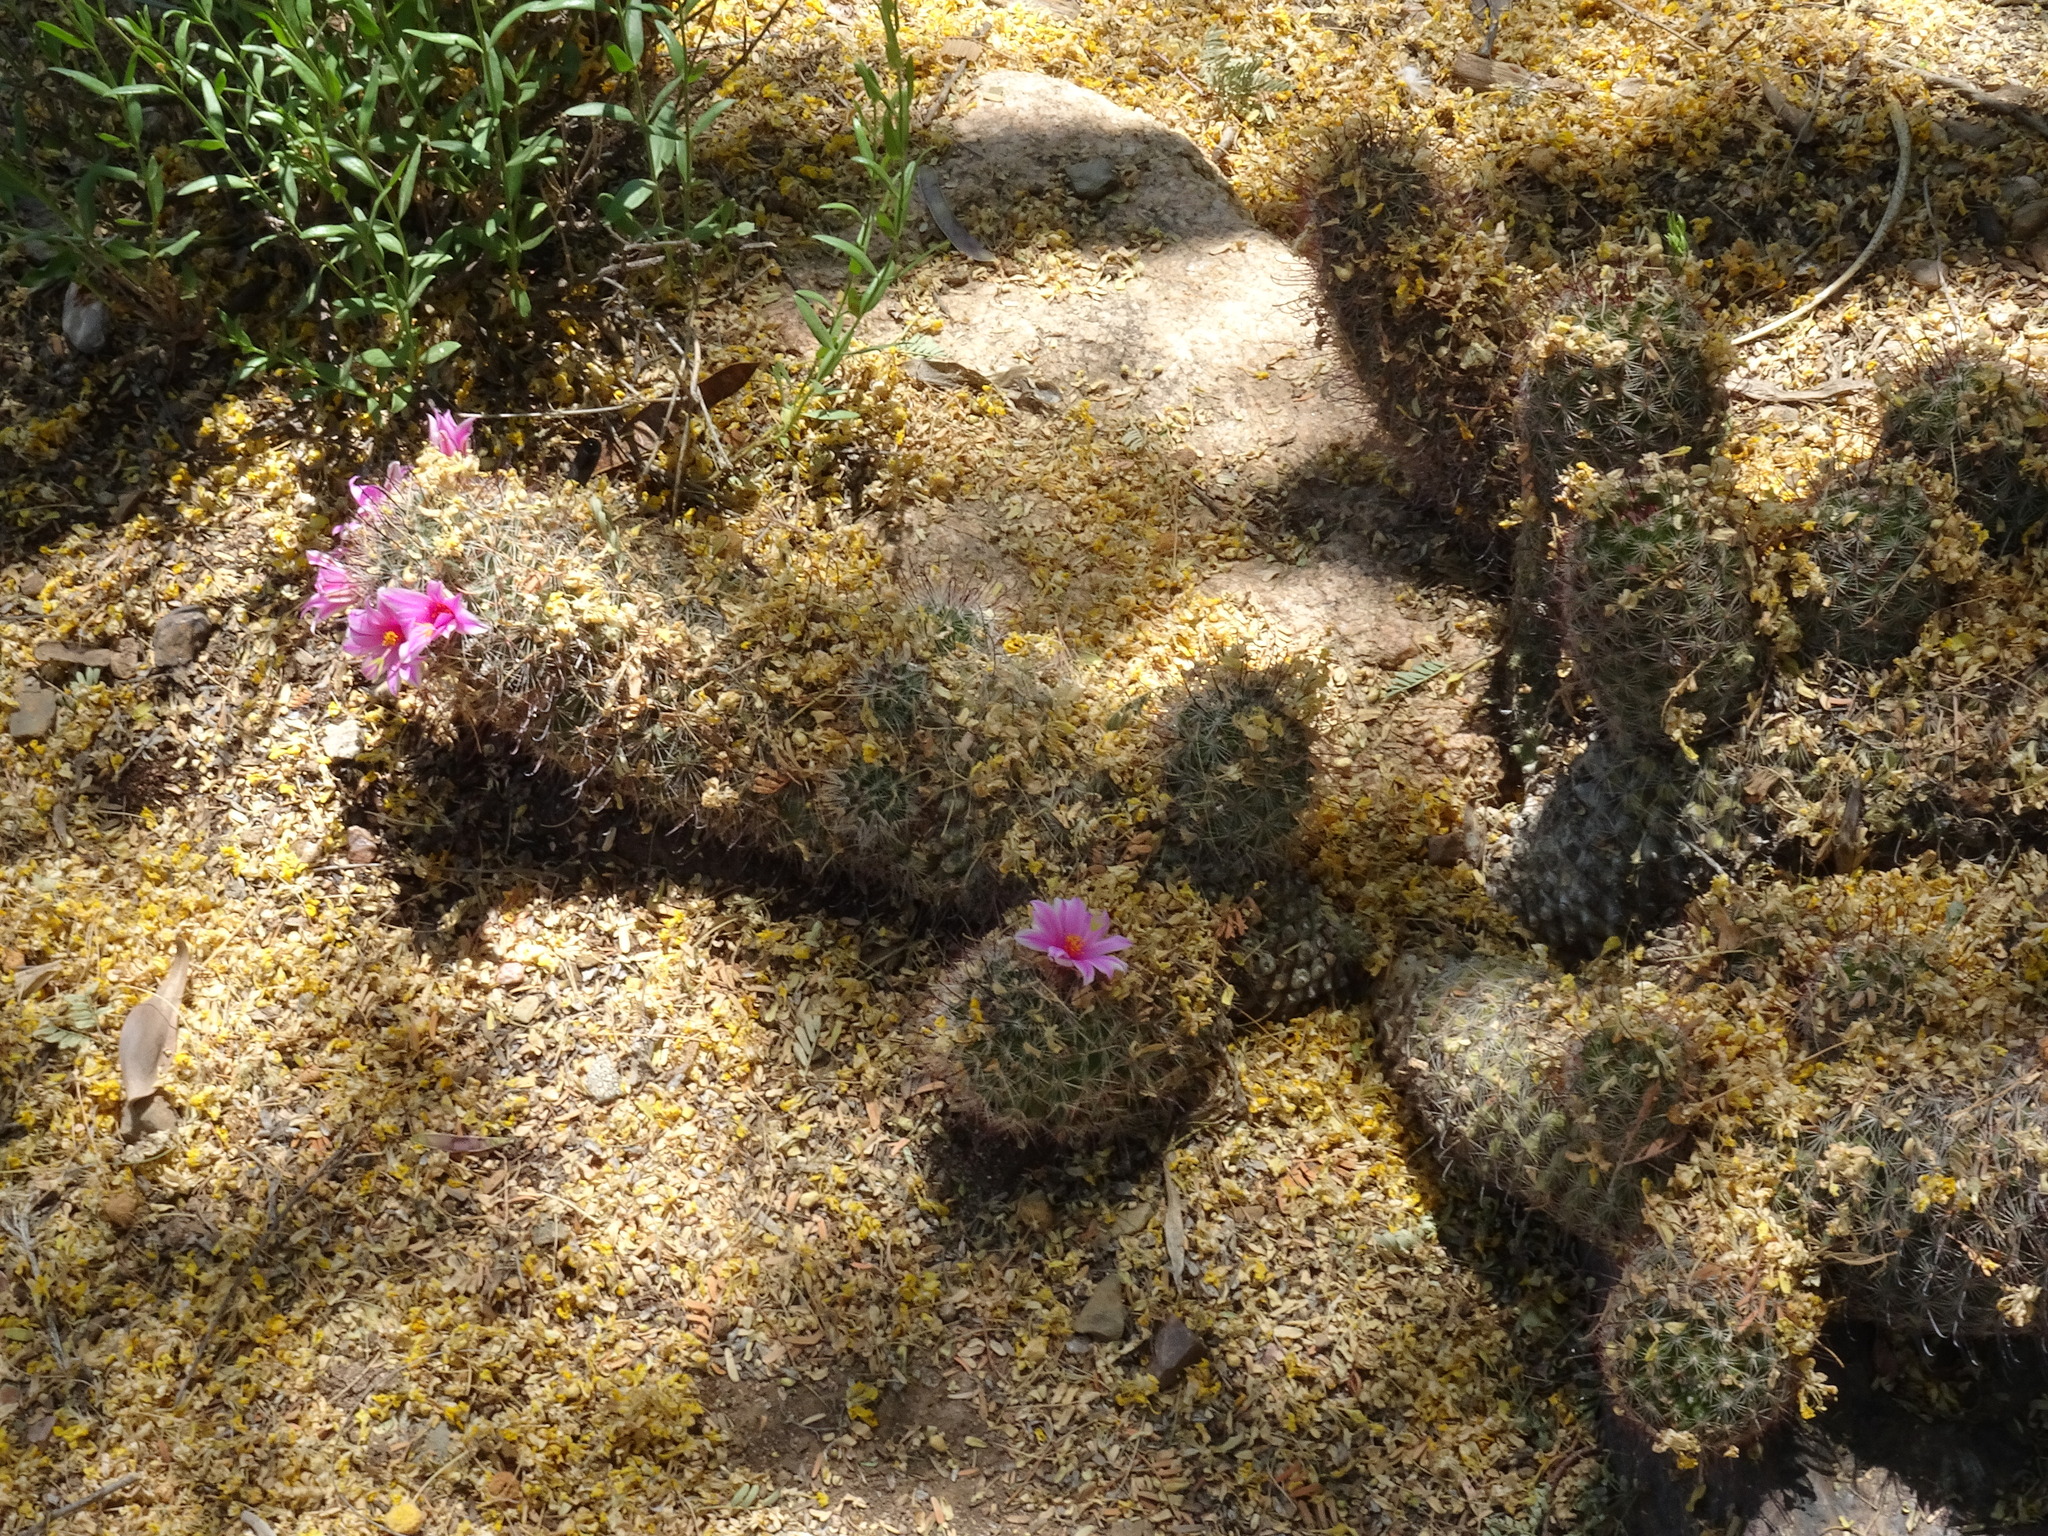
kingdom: Plantae
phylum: Tracheophyta
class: Magnoliopsida
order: Caryophyllales
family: Cactaceae
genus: Cochemiea
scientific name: Cochemiea grahamii
